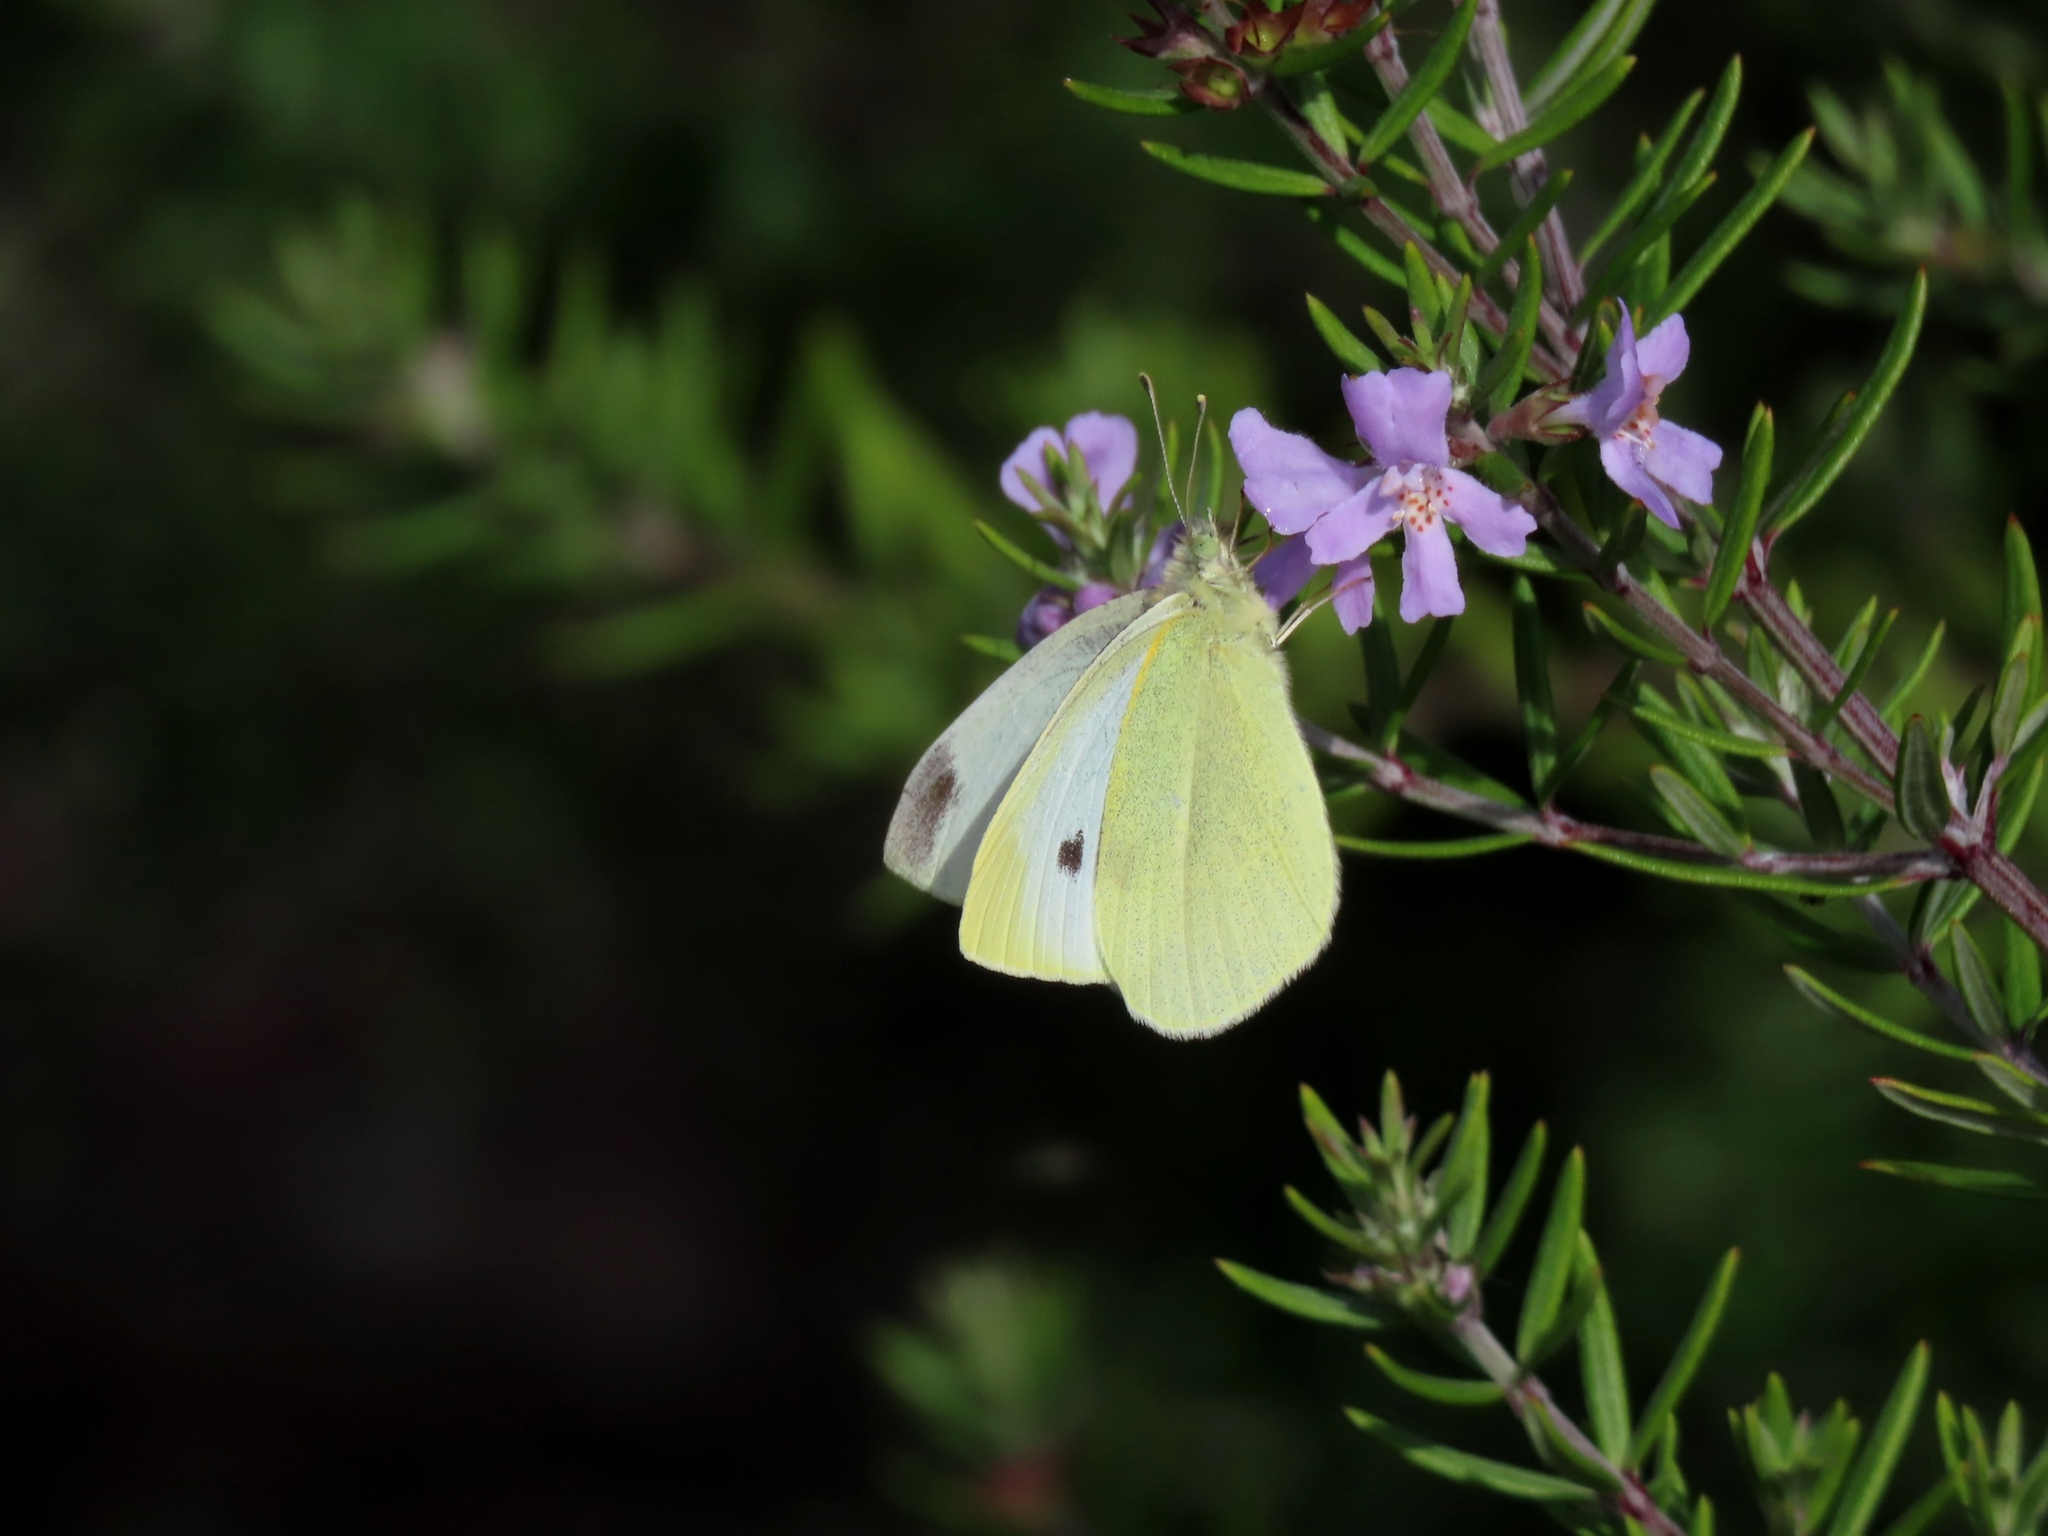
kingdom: Animalia
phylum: Arthropoda
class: Insecta
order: Lepidoptera
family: Pieridae
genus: Pieris
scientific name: Pieris rapae
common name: Small white
